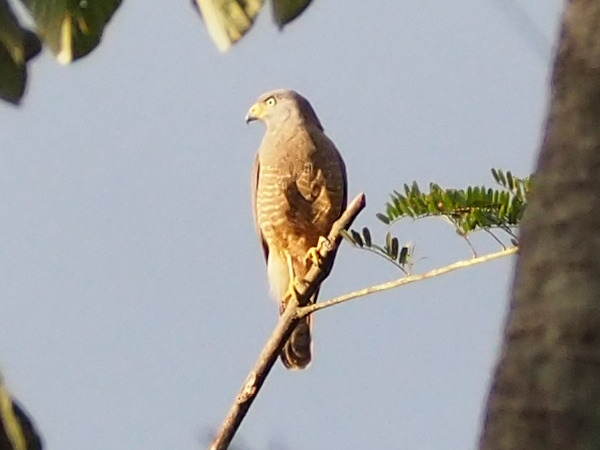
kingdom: Animalia
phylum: Chordata
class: Aves
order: Accipitriformes
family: Accipitridae
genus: Rupornis
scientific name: Rupornis magnirostris
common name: Roadside hawk
